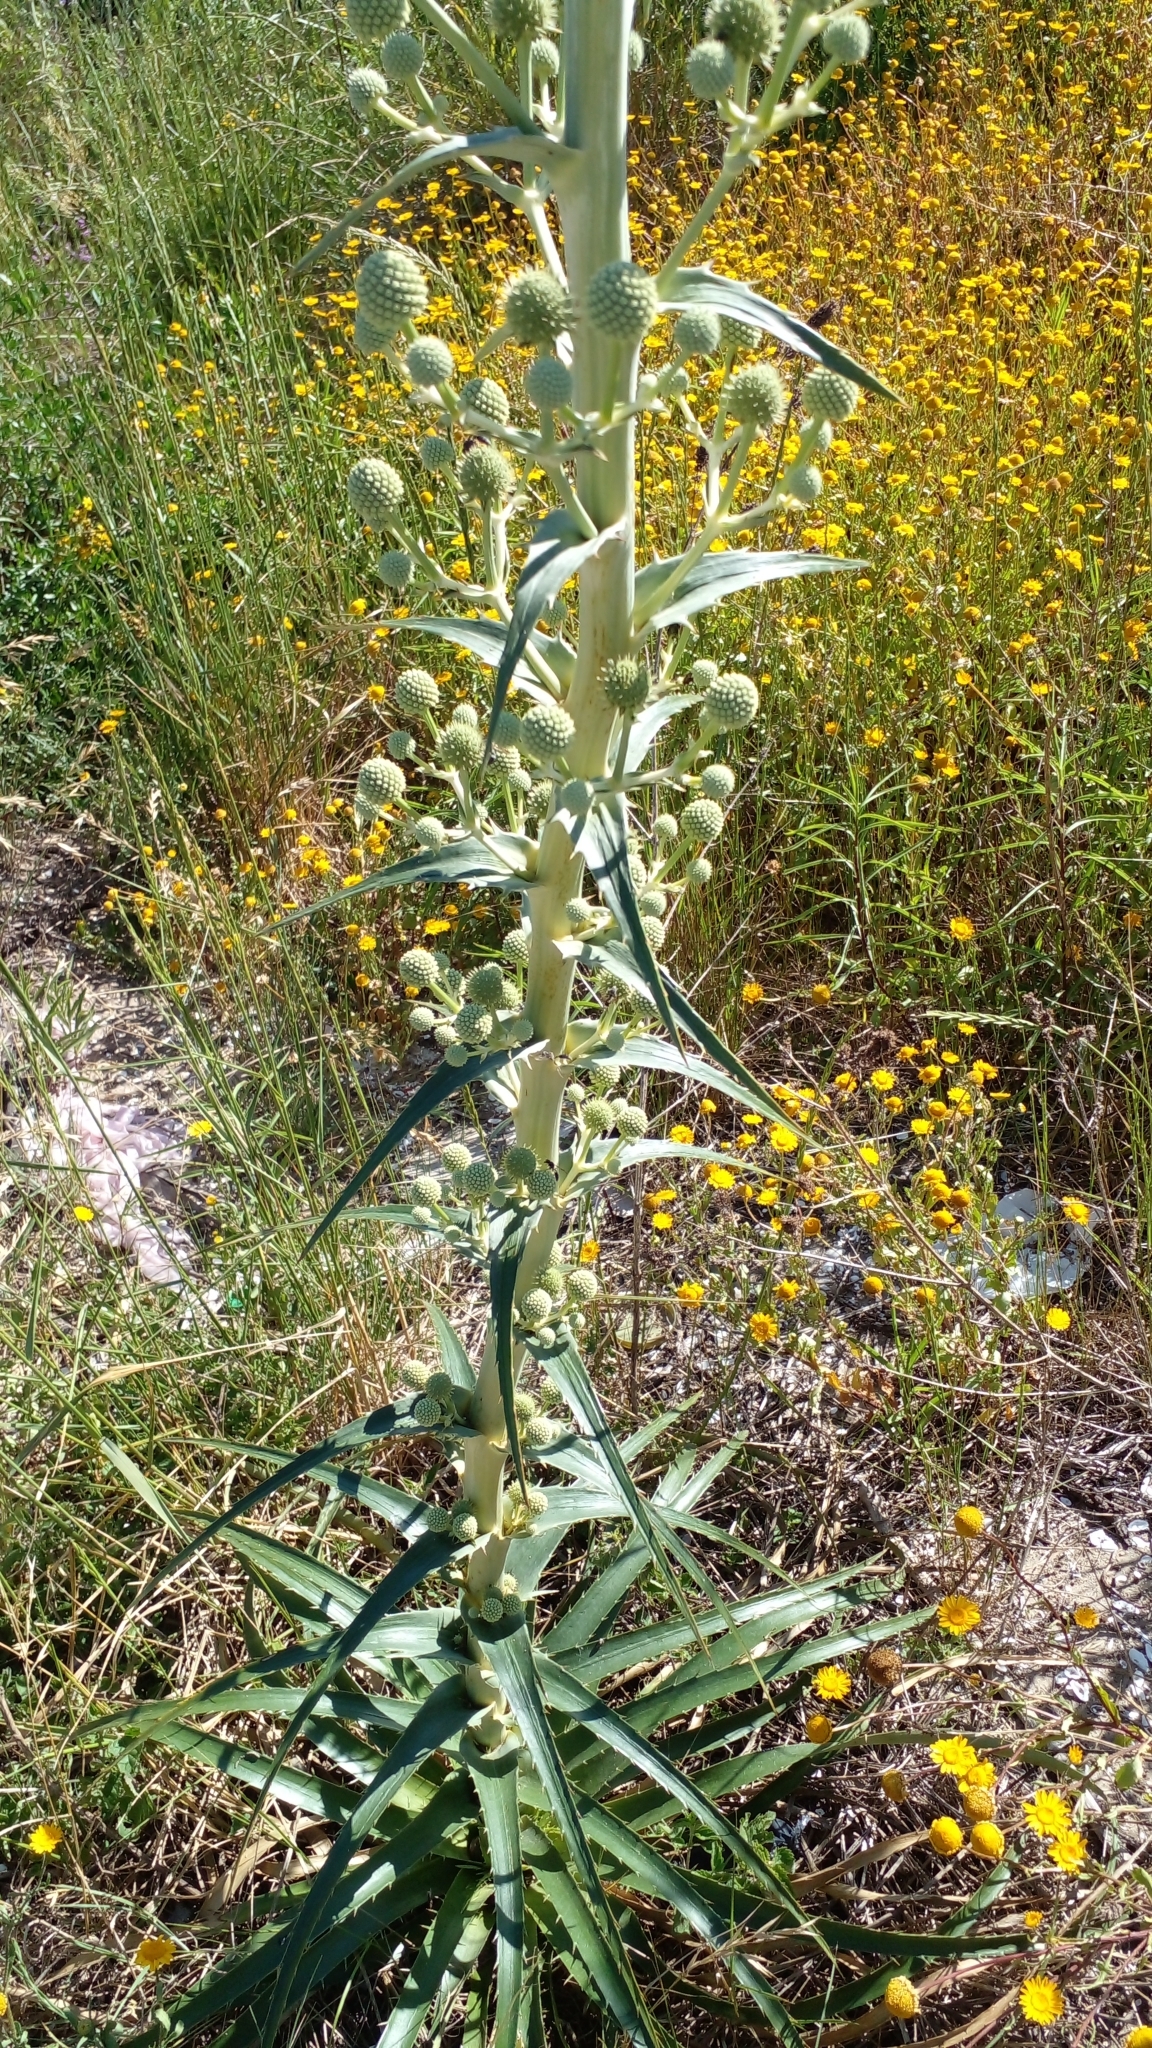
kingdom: Plantae
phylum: Tracheophyta
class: Magnoliopsida
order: Apiales
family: Apiaceae
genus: Eryngium
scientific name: Eryngium horridum
